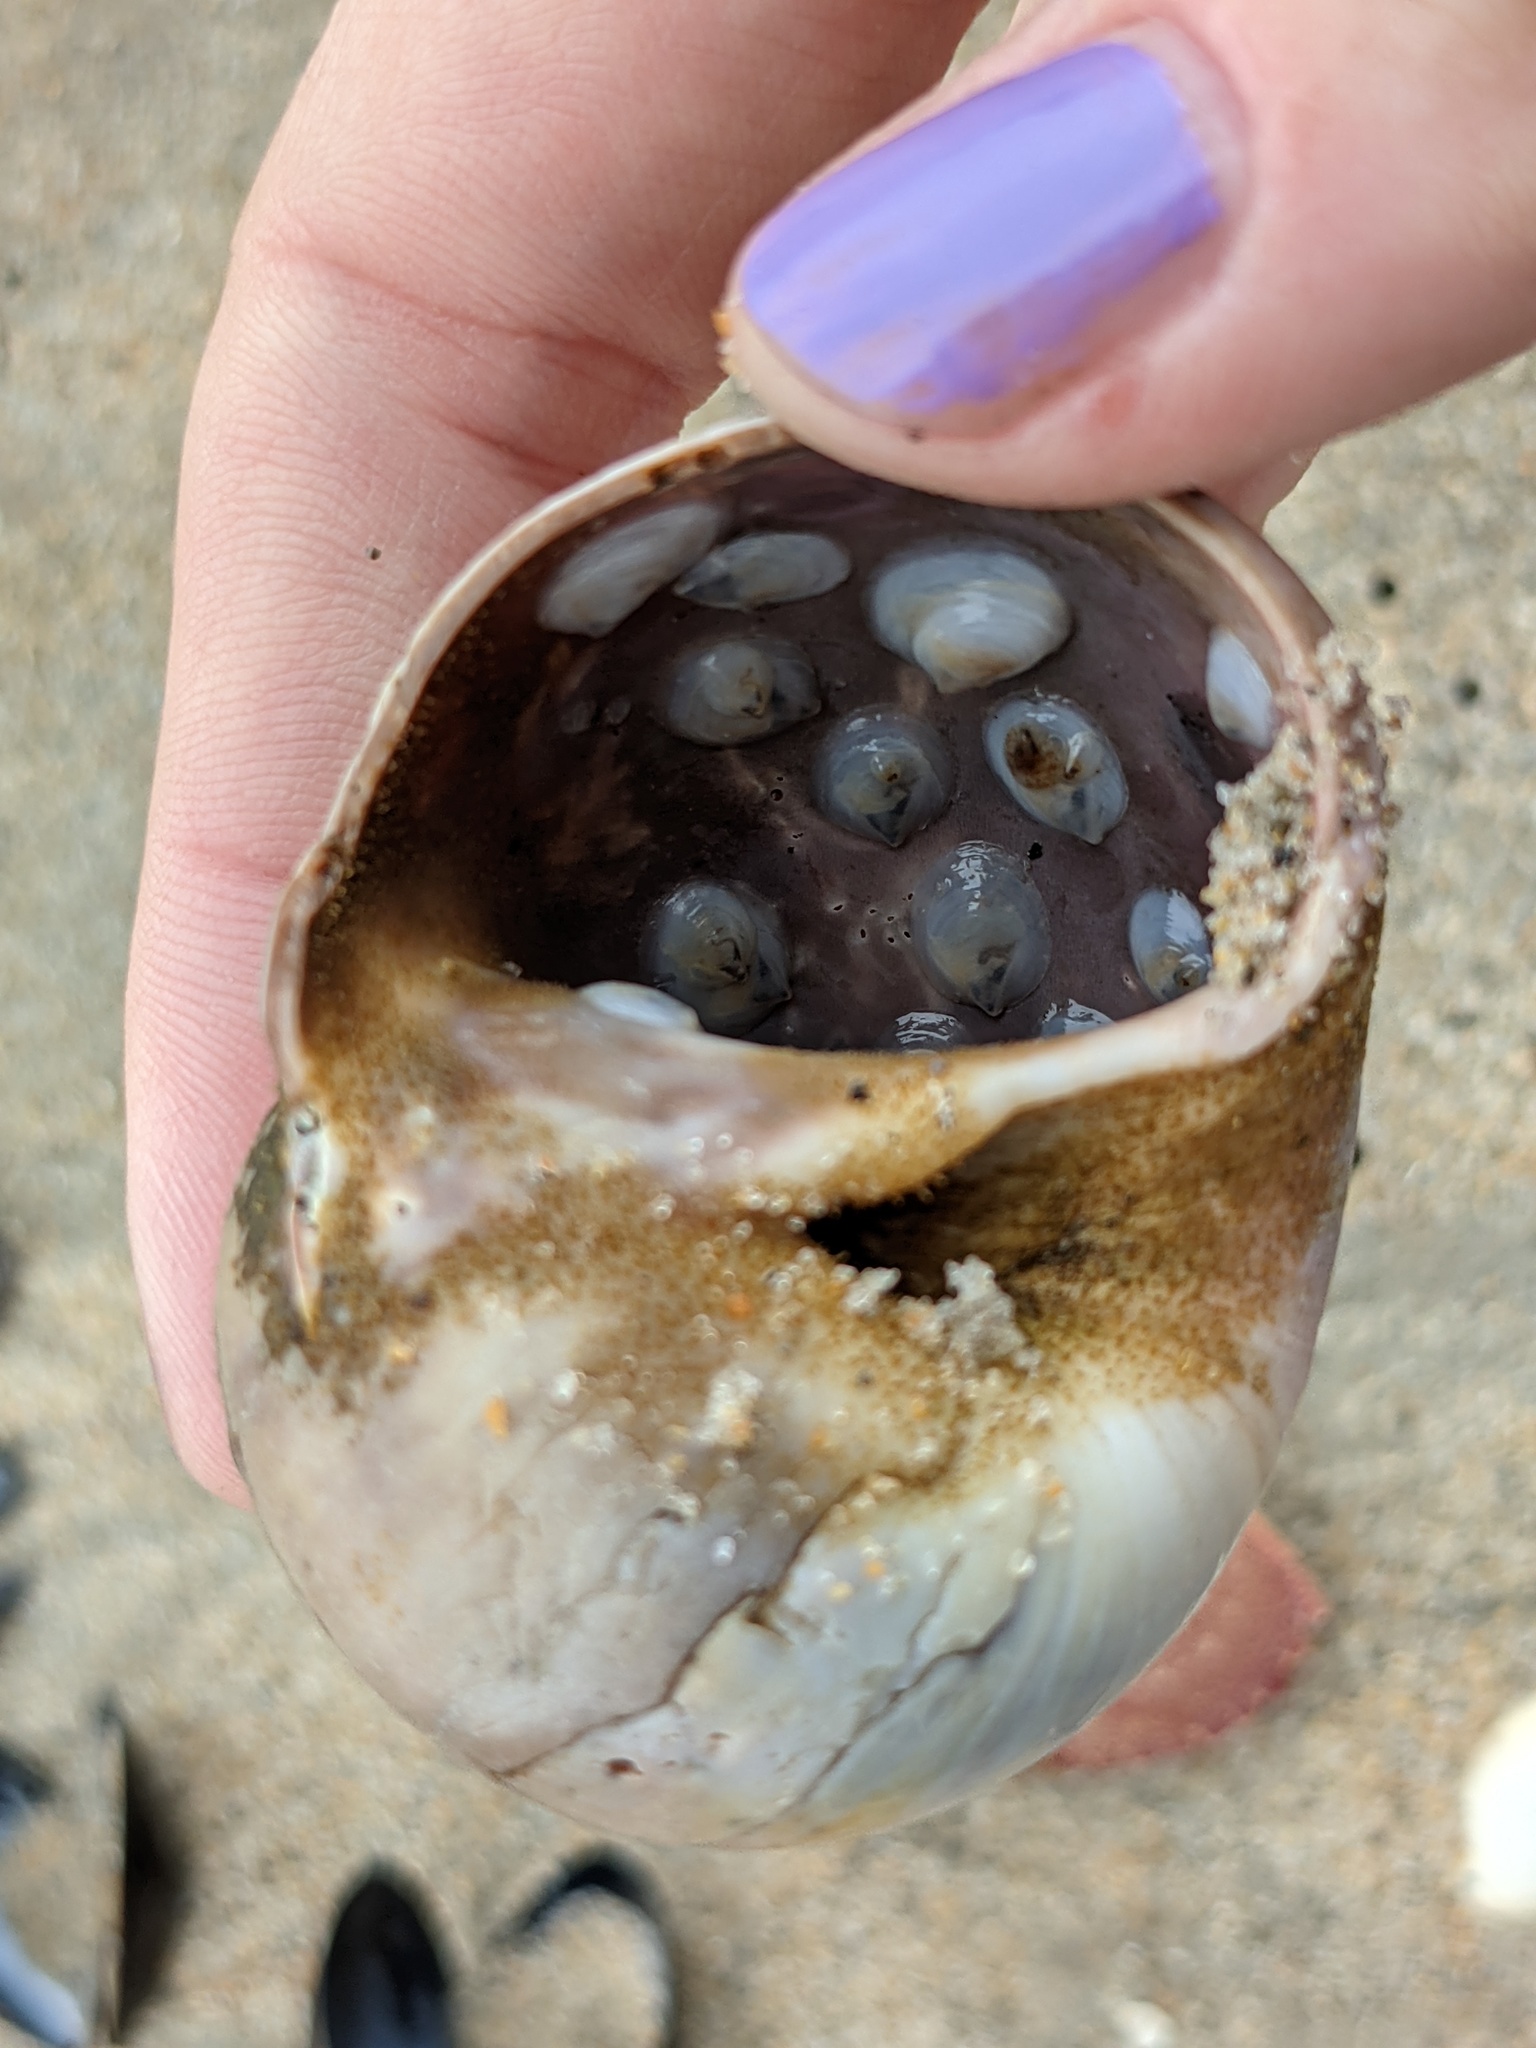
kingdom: Animalia
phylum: Mollusca
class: Gastropoda
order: Littorinimorpha
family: Calyptraeidae
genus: Crepidula
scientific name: Crepidula plana
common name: Eastern white slippersnail
